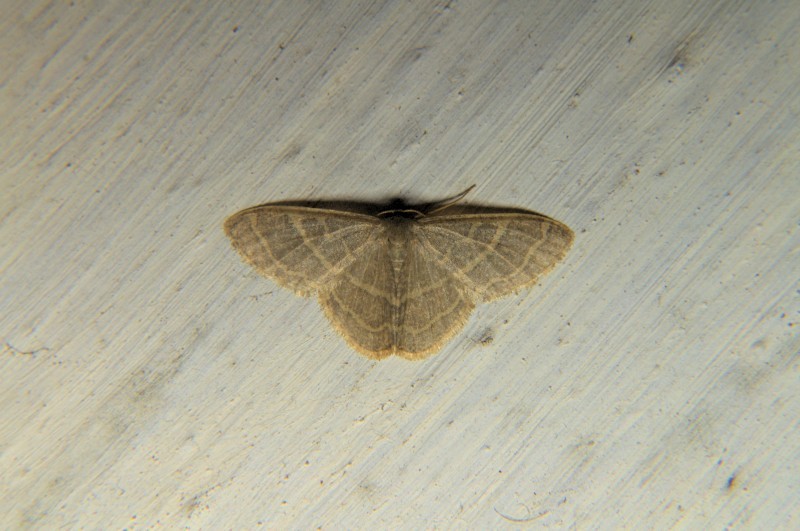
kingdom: Animalia
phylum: Arthropoda
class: Insecta
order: Lepidoptera
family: Geometridae
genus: Lophophleps
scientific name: Lophophleps triangularis
